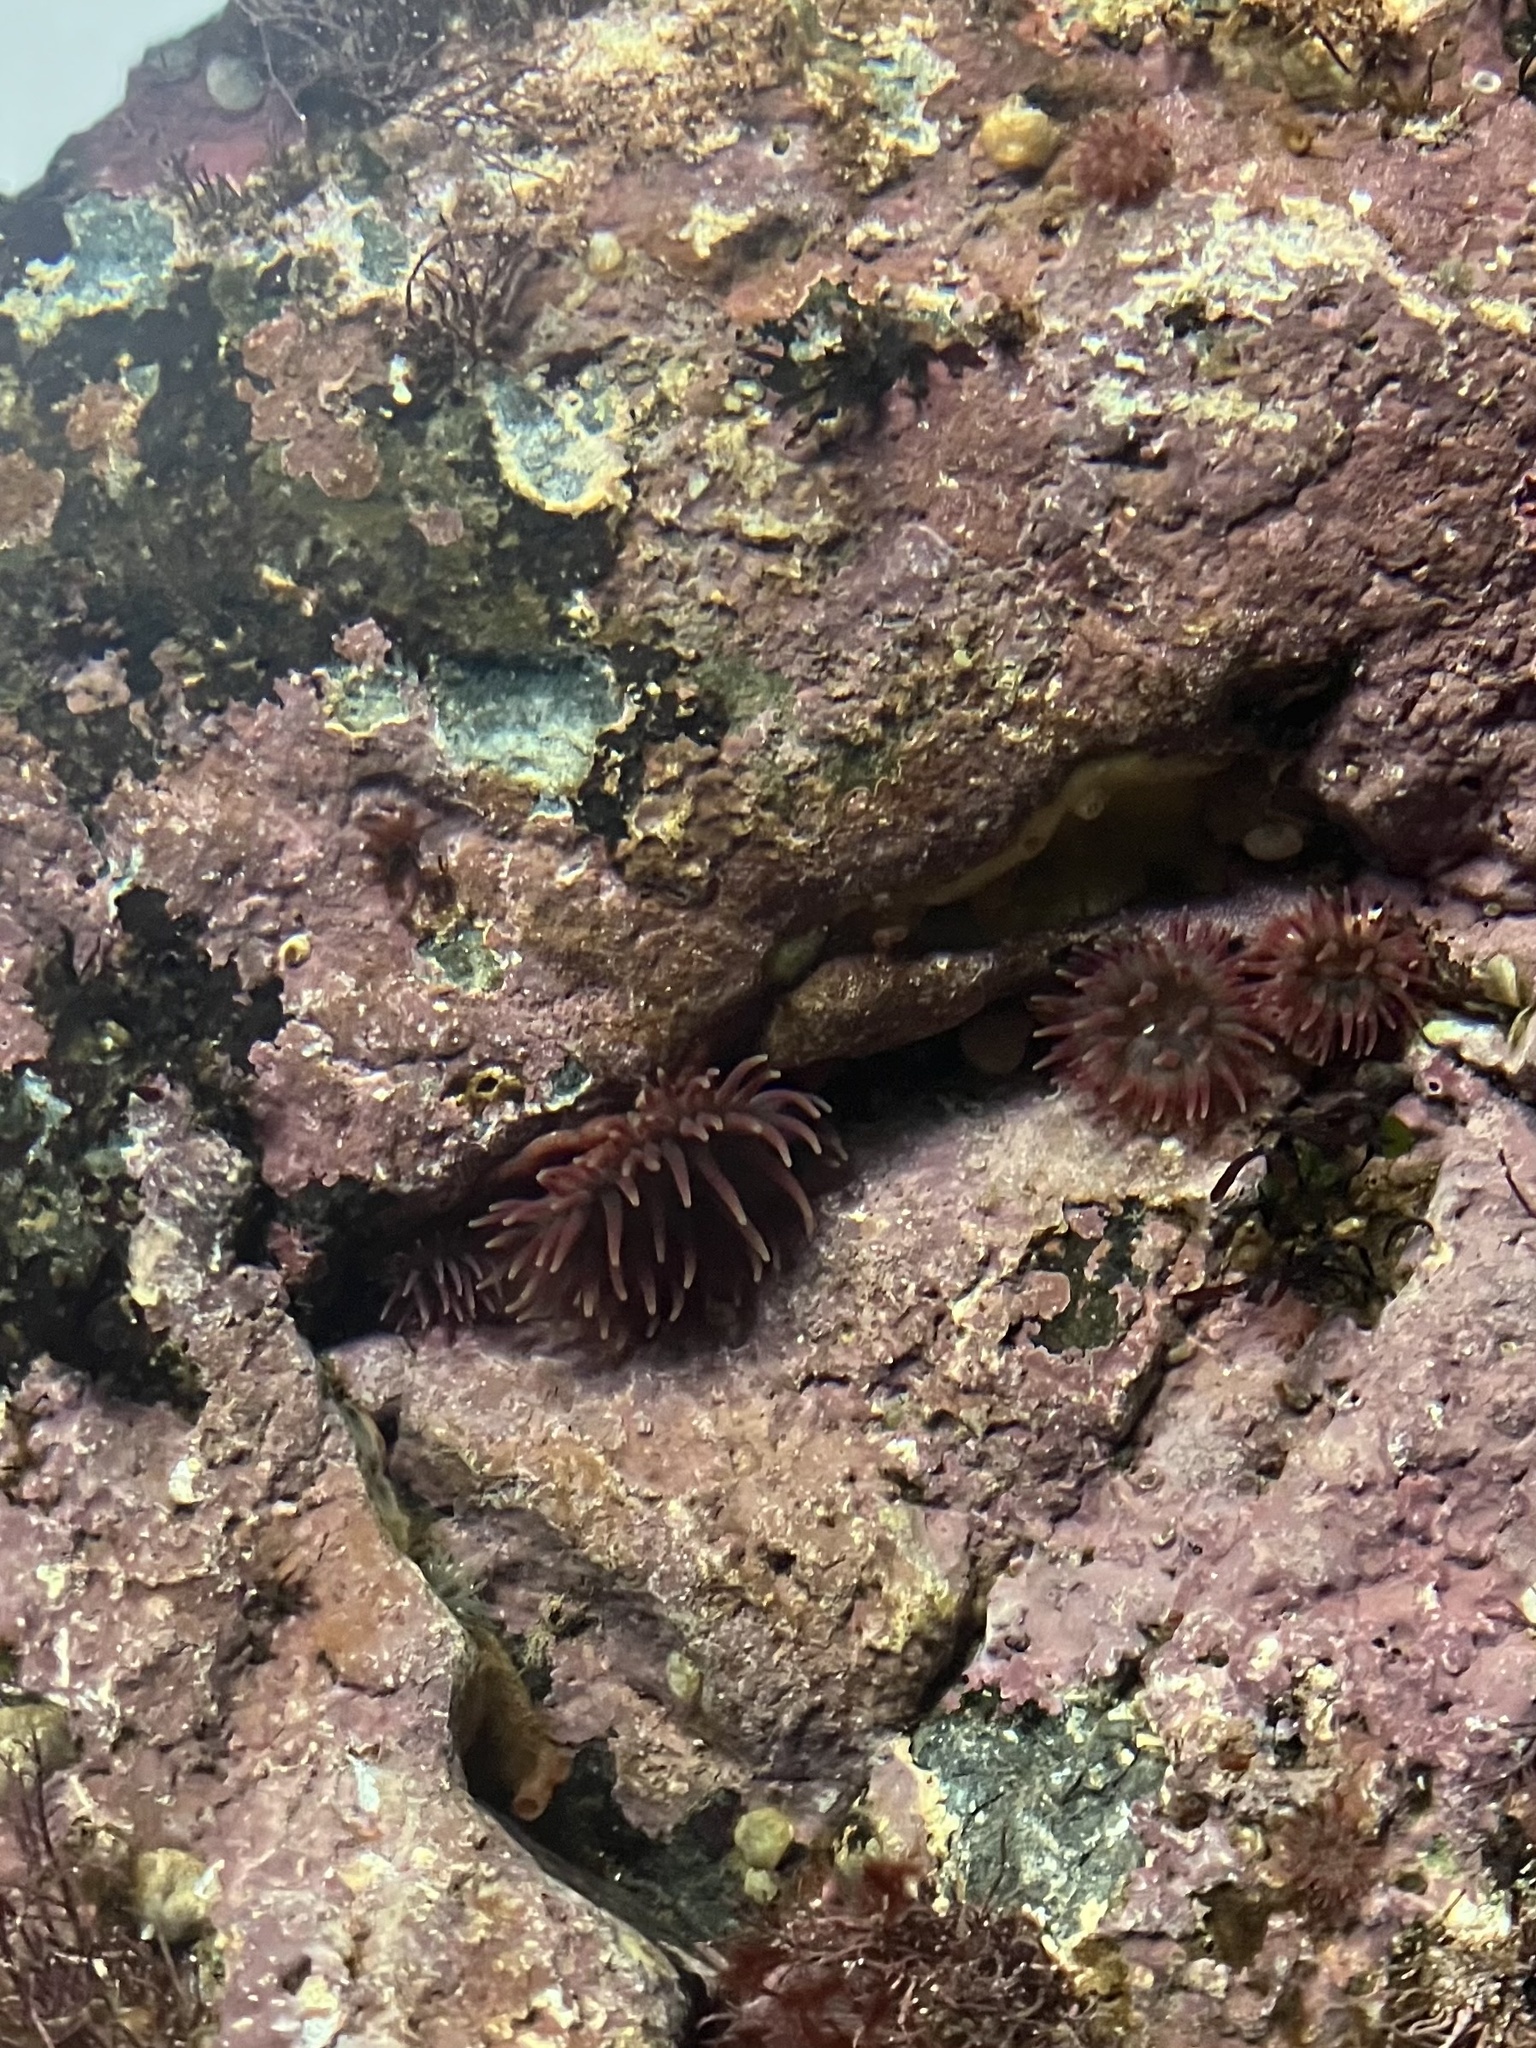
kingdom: Animalia
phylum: Cnidaria
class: Anthozoa
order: Actiniaria
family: Actiniidae
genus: Urticina
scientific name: Urticina crassicornis
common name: Mottled anemone
